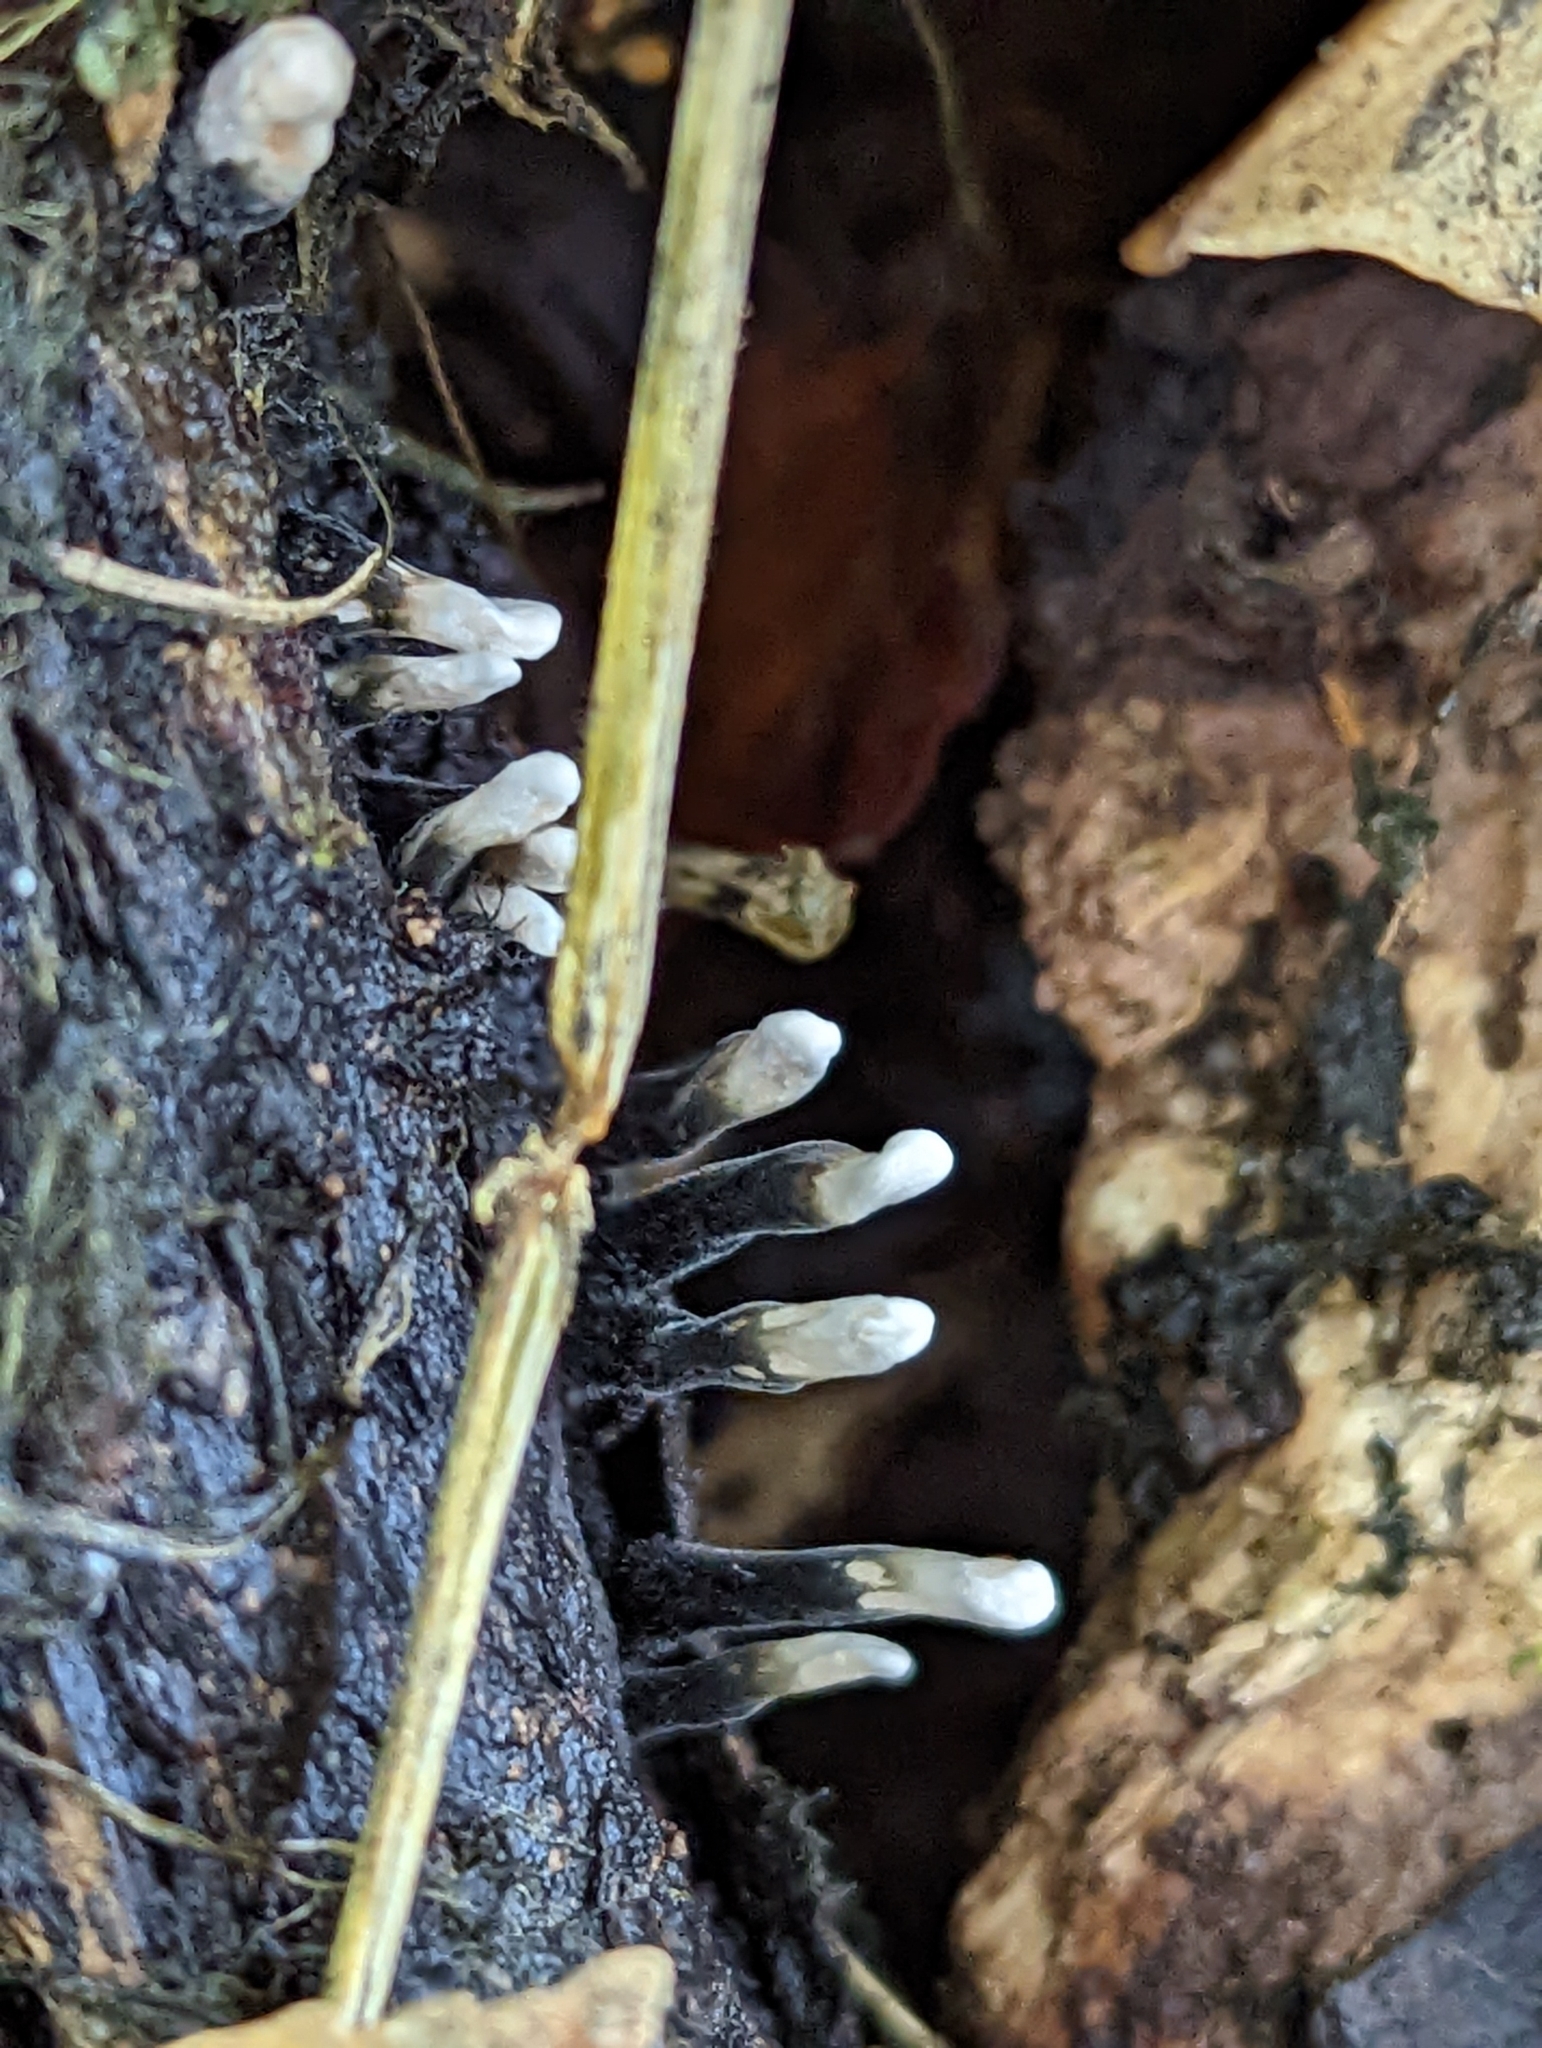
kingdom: Fungi
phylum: Ascomycota
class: Sordariomycetes
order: Xylariales
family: Xylariaceae
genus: Xylaria
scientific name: Xylaria hypoxylon
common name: Candle-snuff fungus
